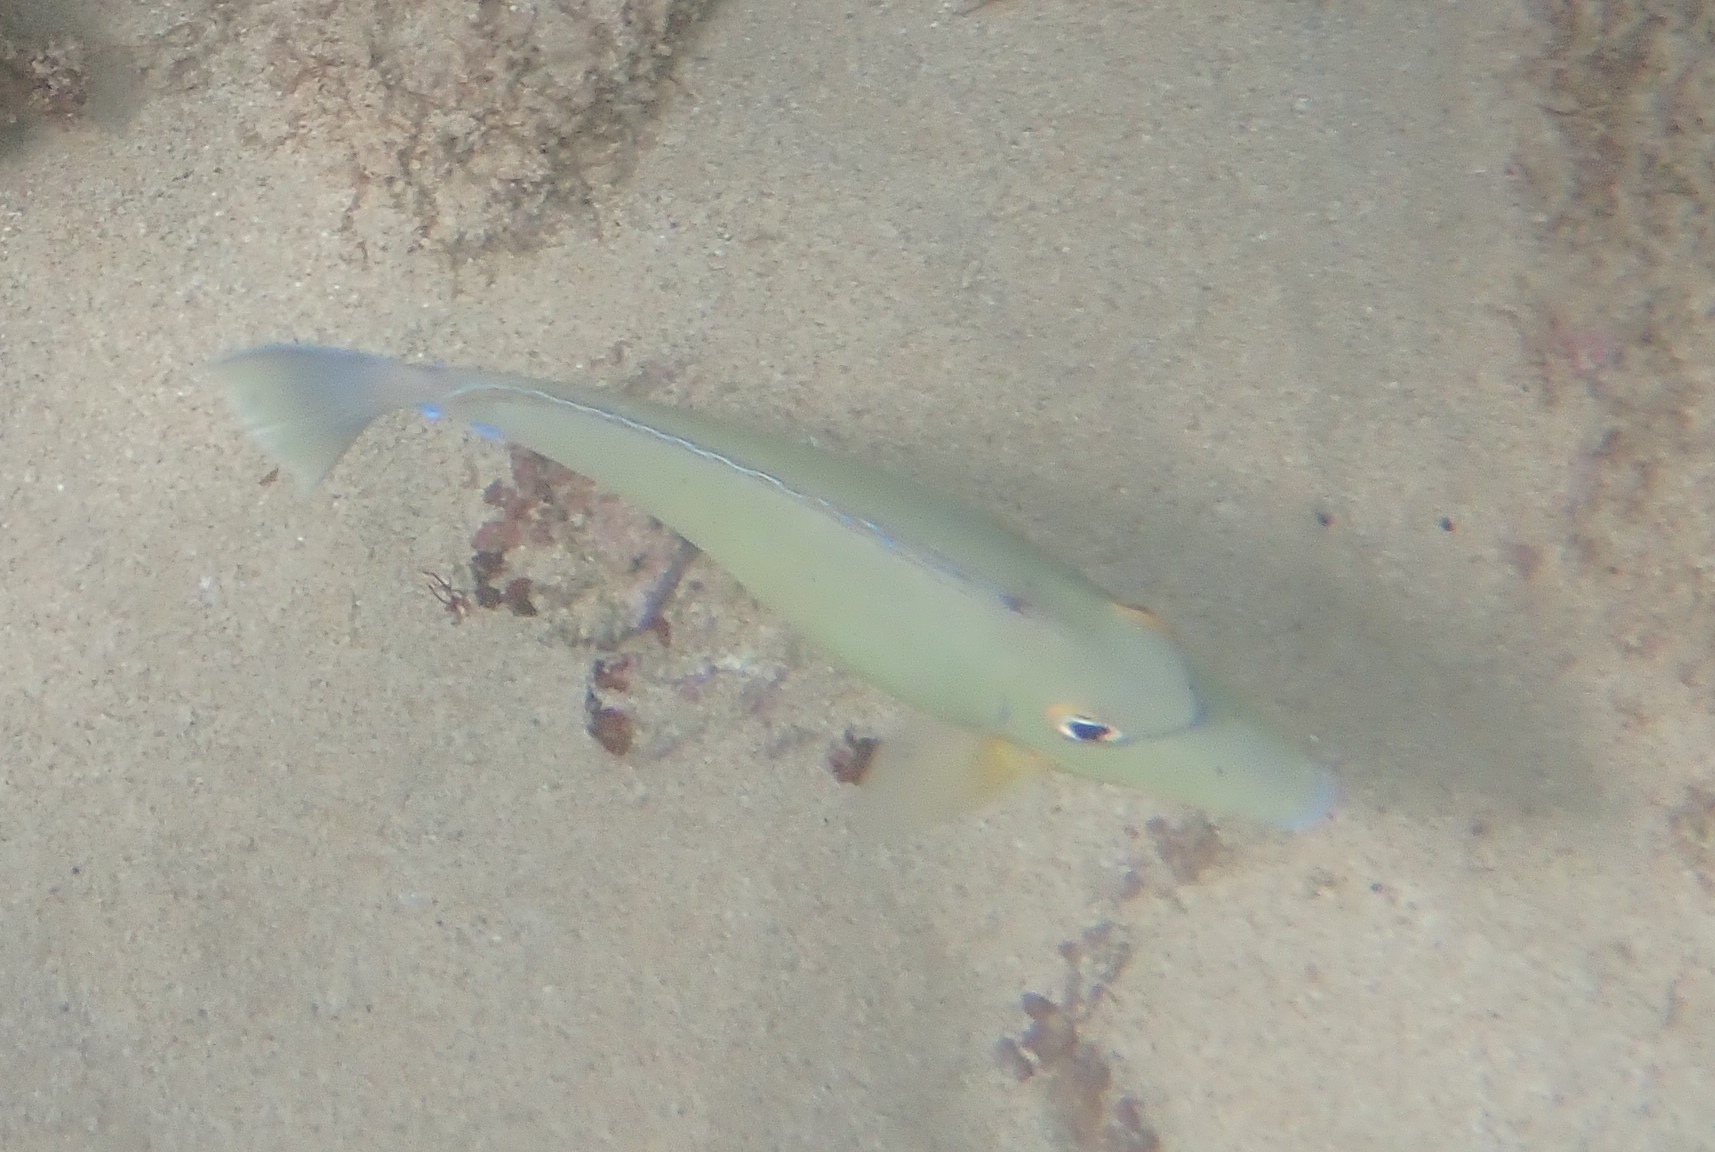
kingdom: Animalia
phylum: Chordata
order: Perciformes
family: Acanthuridae
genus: Naso
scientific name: Naso unicornis
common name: Bluespine unicornfish
